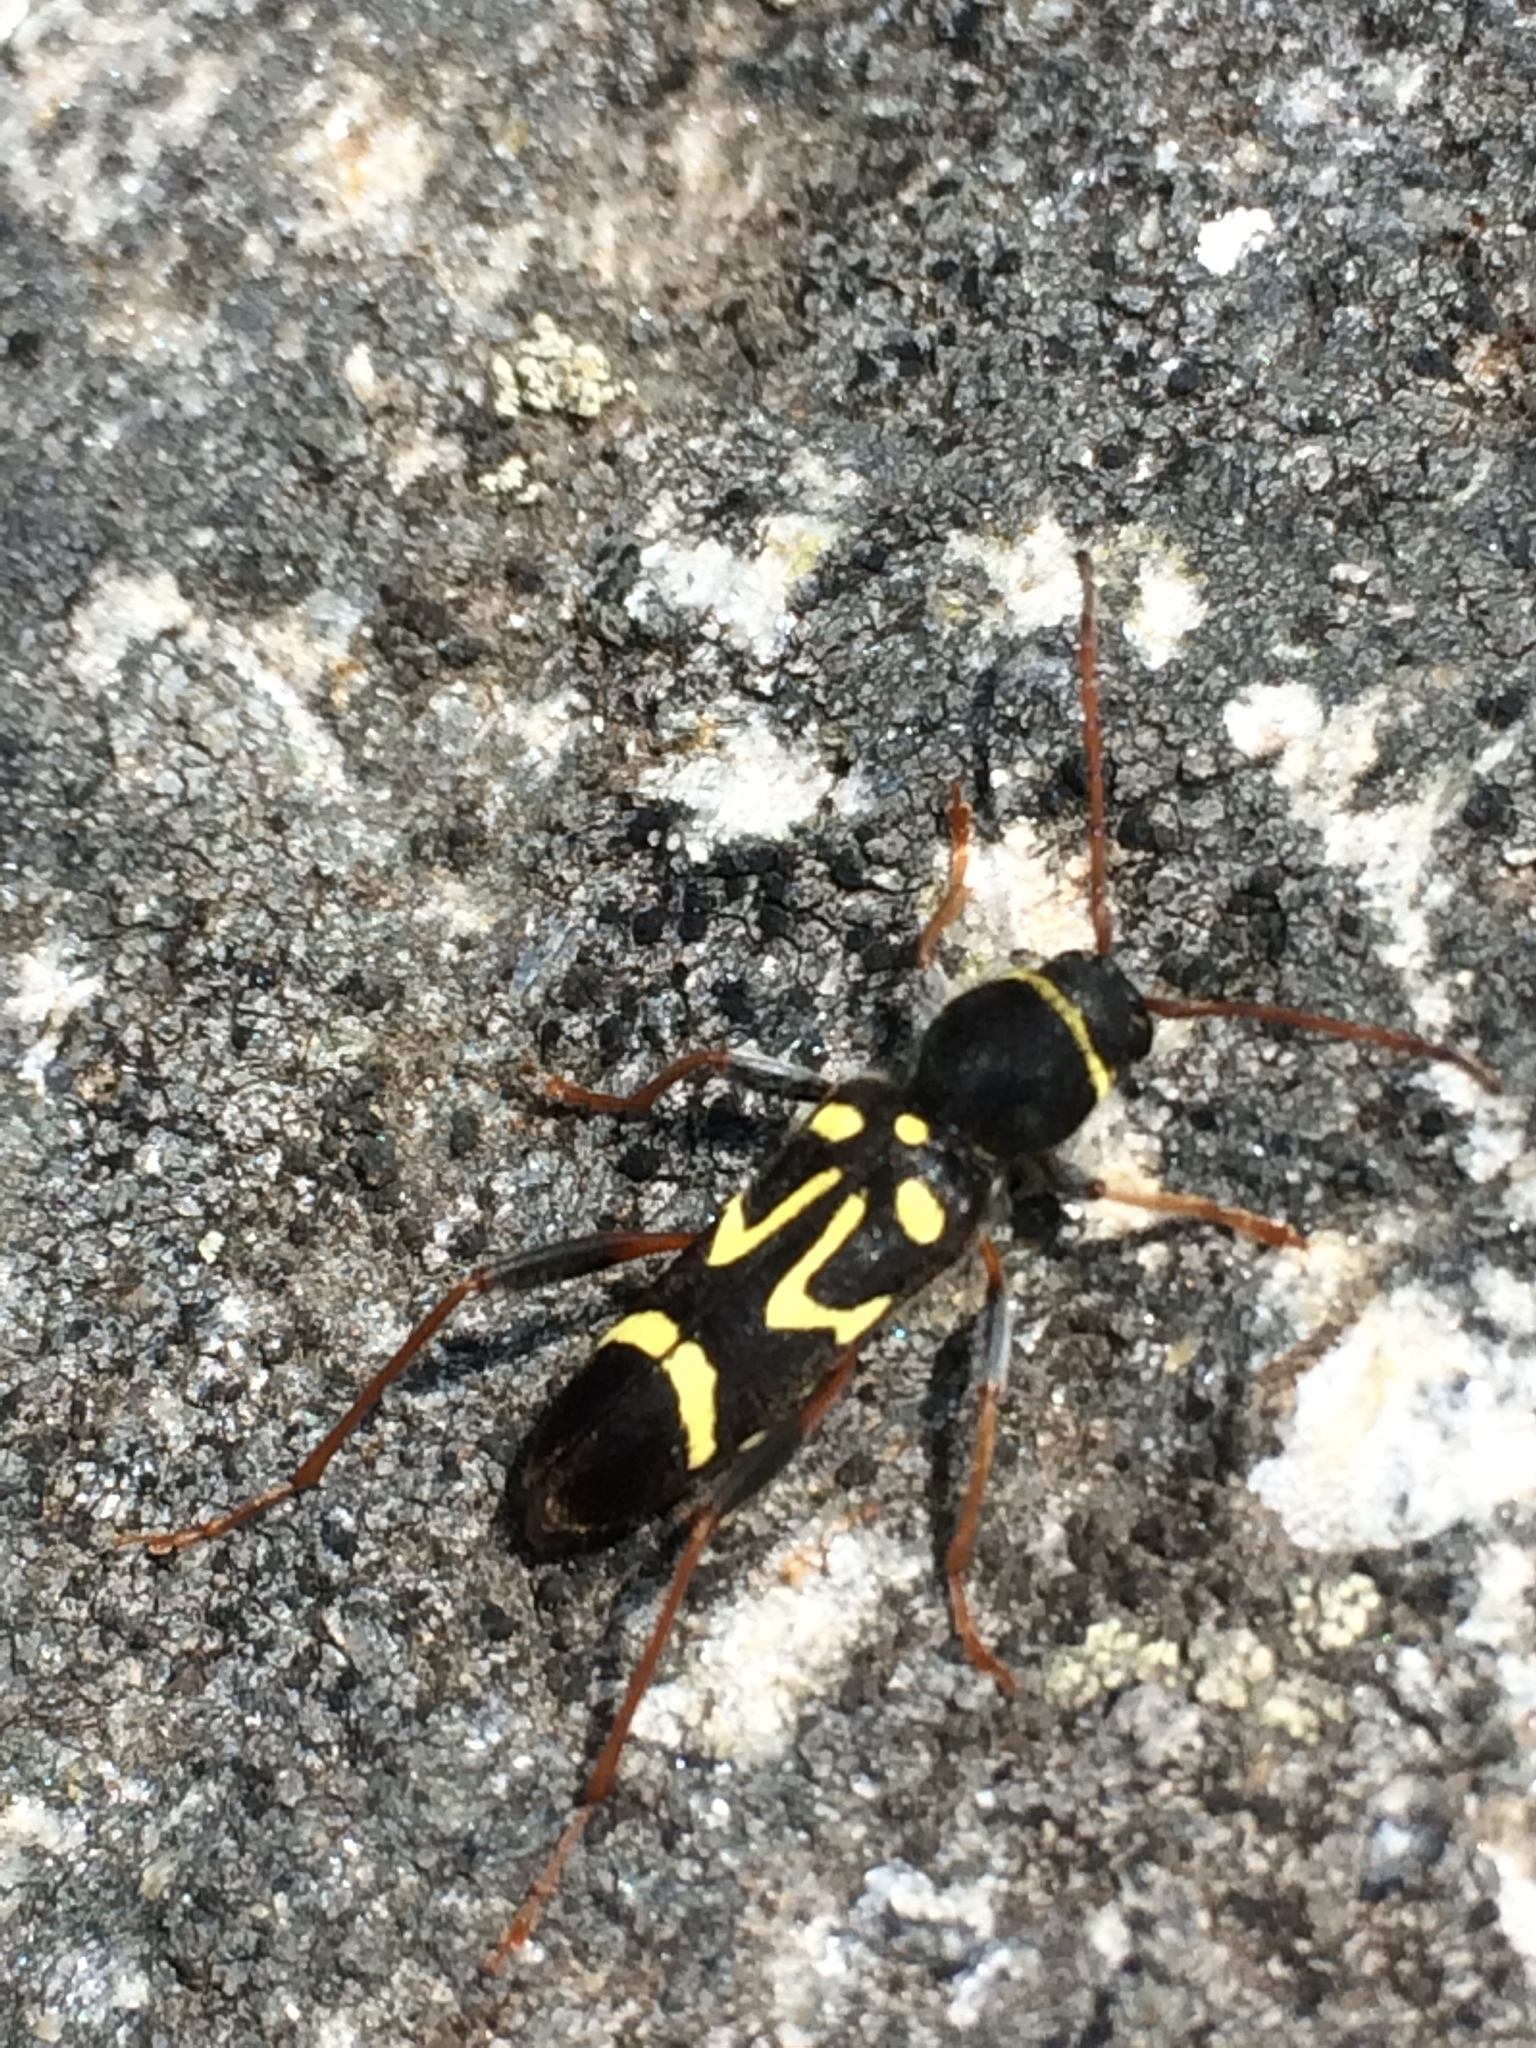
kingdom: Animalia
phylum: Arthropoda
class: Insecta
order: Coleoptera
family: Cerambycidae
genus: Clytus
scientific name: Clytus ruricola
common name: Round-necked longhorn beetle
